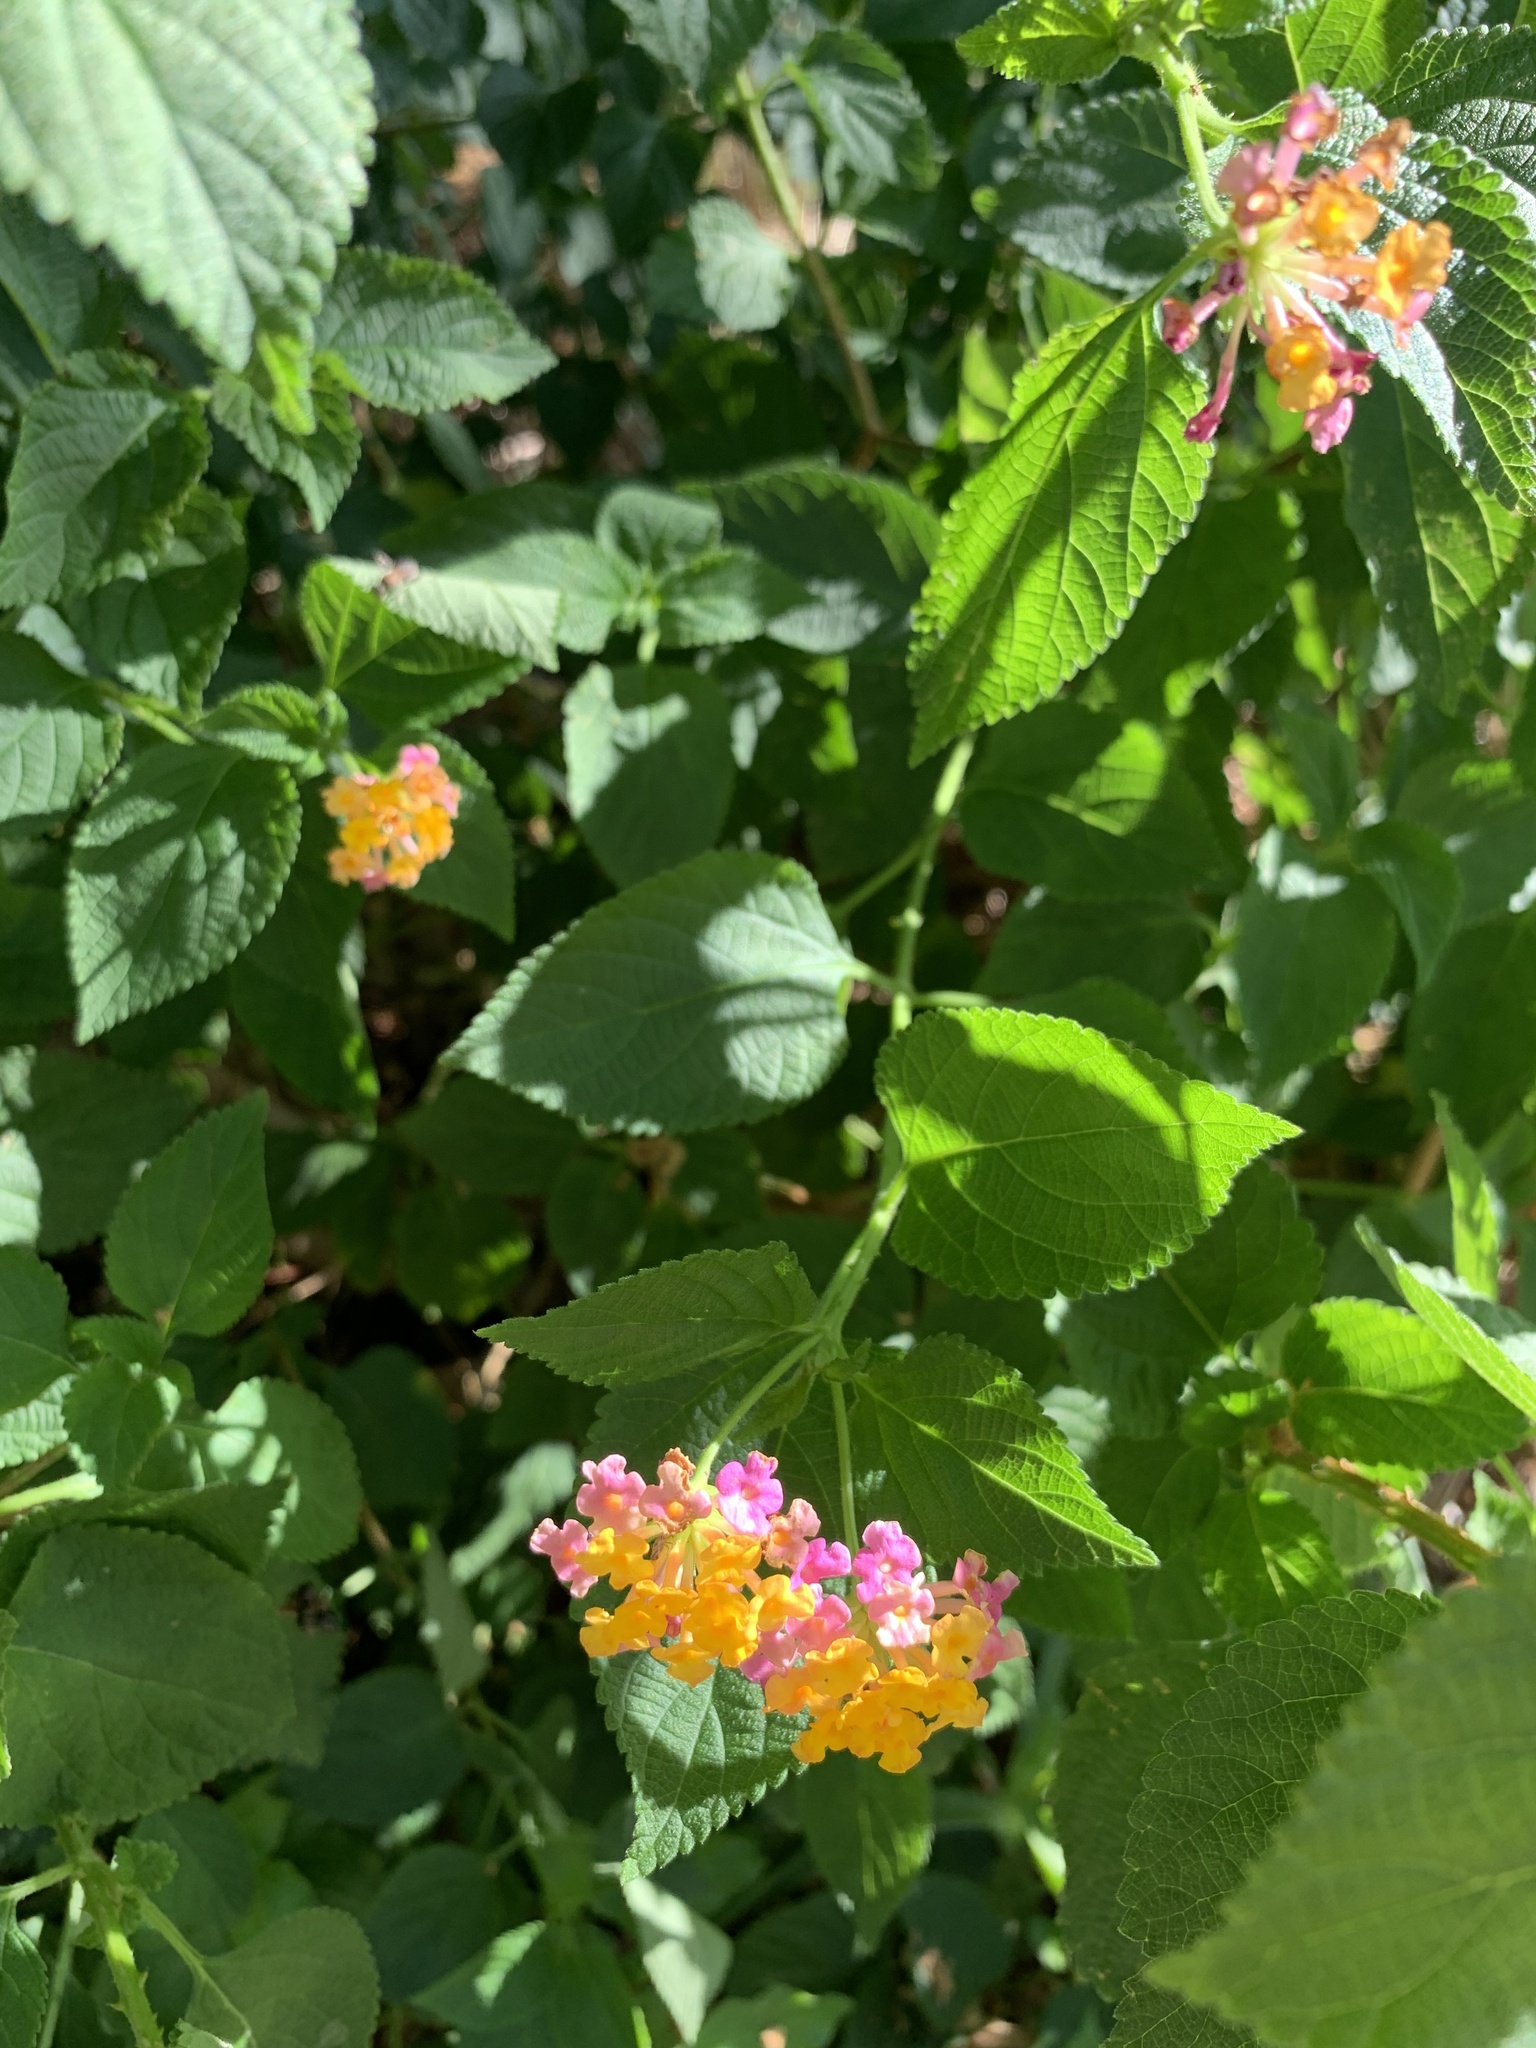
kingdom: Plantae
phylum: Tracheophyta
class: Magnoliopsida
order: Lamiales
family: Verbenaceae
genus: Lantana
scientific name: Lantana camara
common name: Lantana
